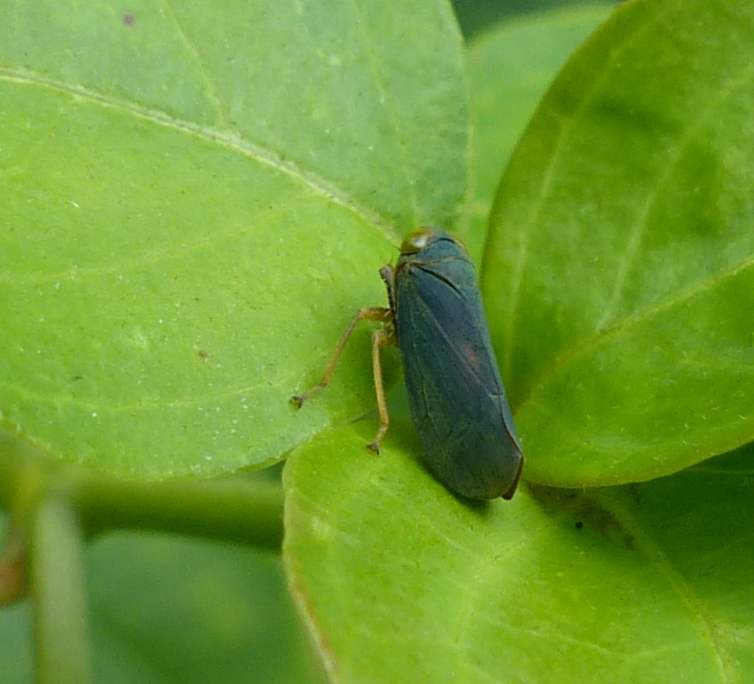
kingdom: Animalia
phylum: Arthropoda
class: Insecta
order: Hemiptera
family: Cicadellidae
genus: Jikradia
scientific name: Jikradia olitoria
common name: Coppery leafhopper
